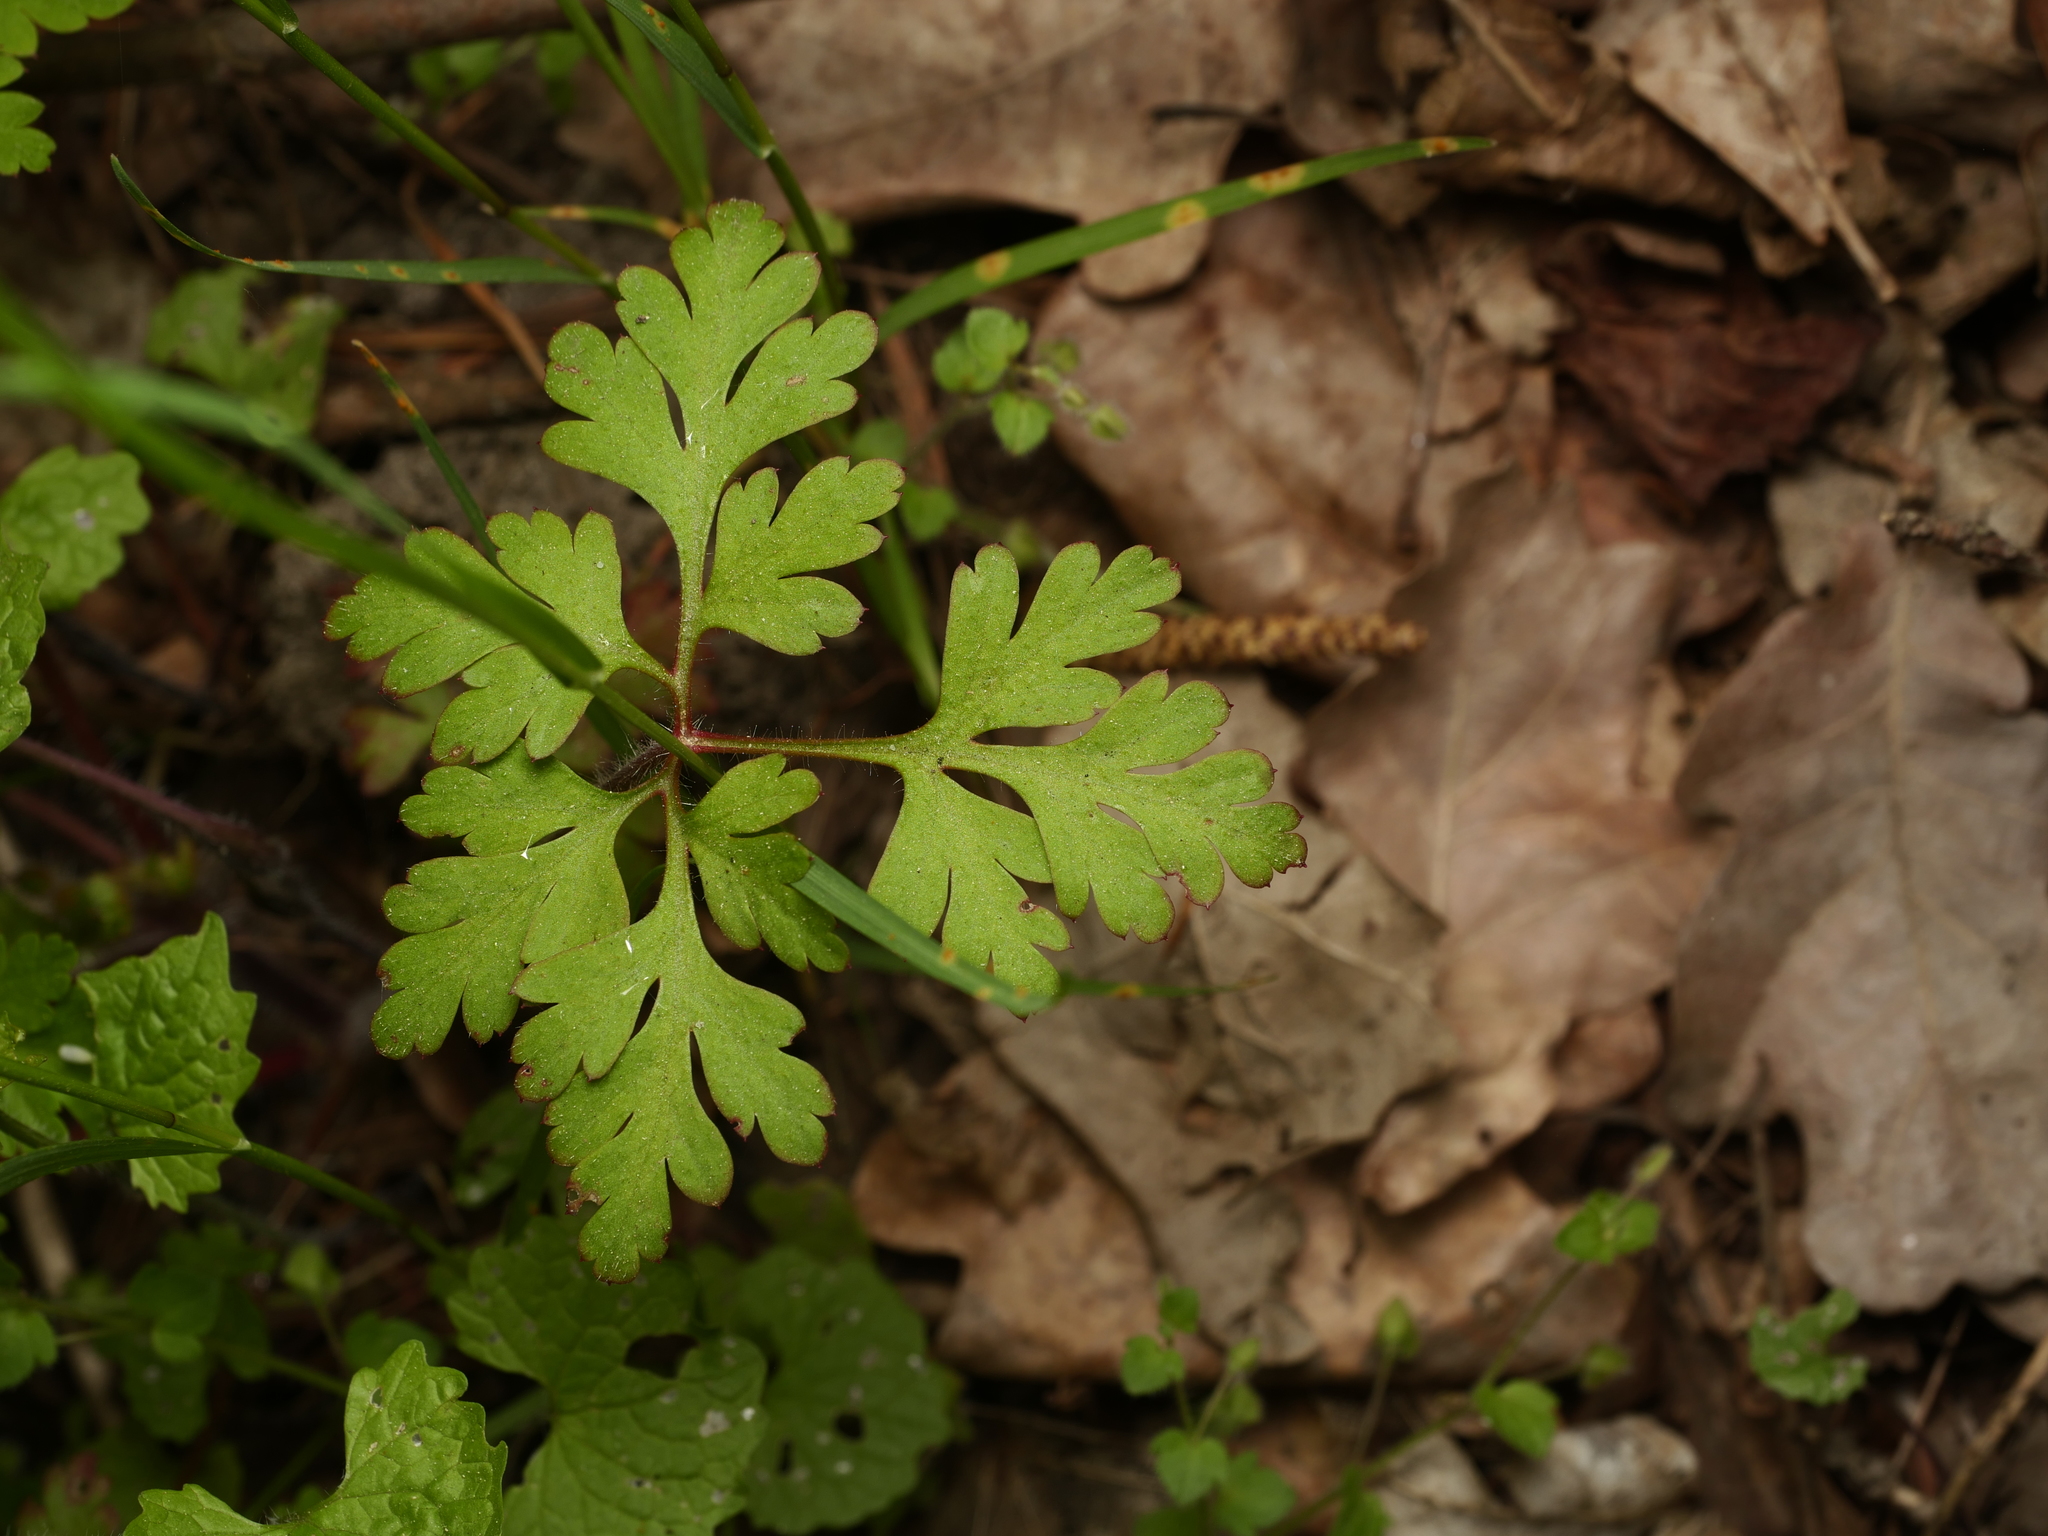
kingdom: Plantae
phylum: Tracheophyta
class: Magnoliopsida
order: Geraniales
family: Geraniaceae
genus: Geranium
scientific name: Geranium robertianum
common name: Herb-robert
